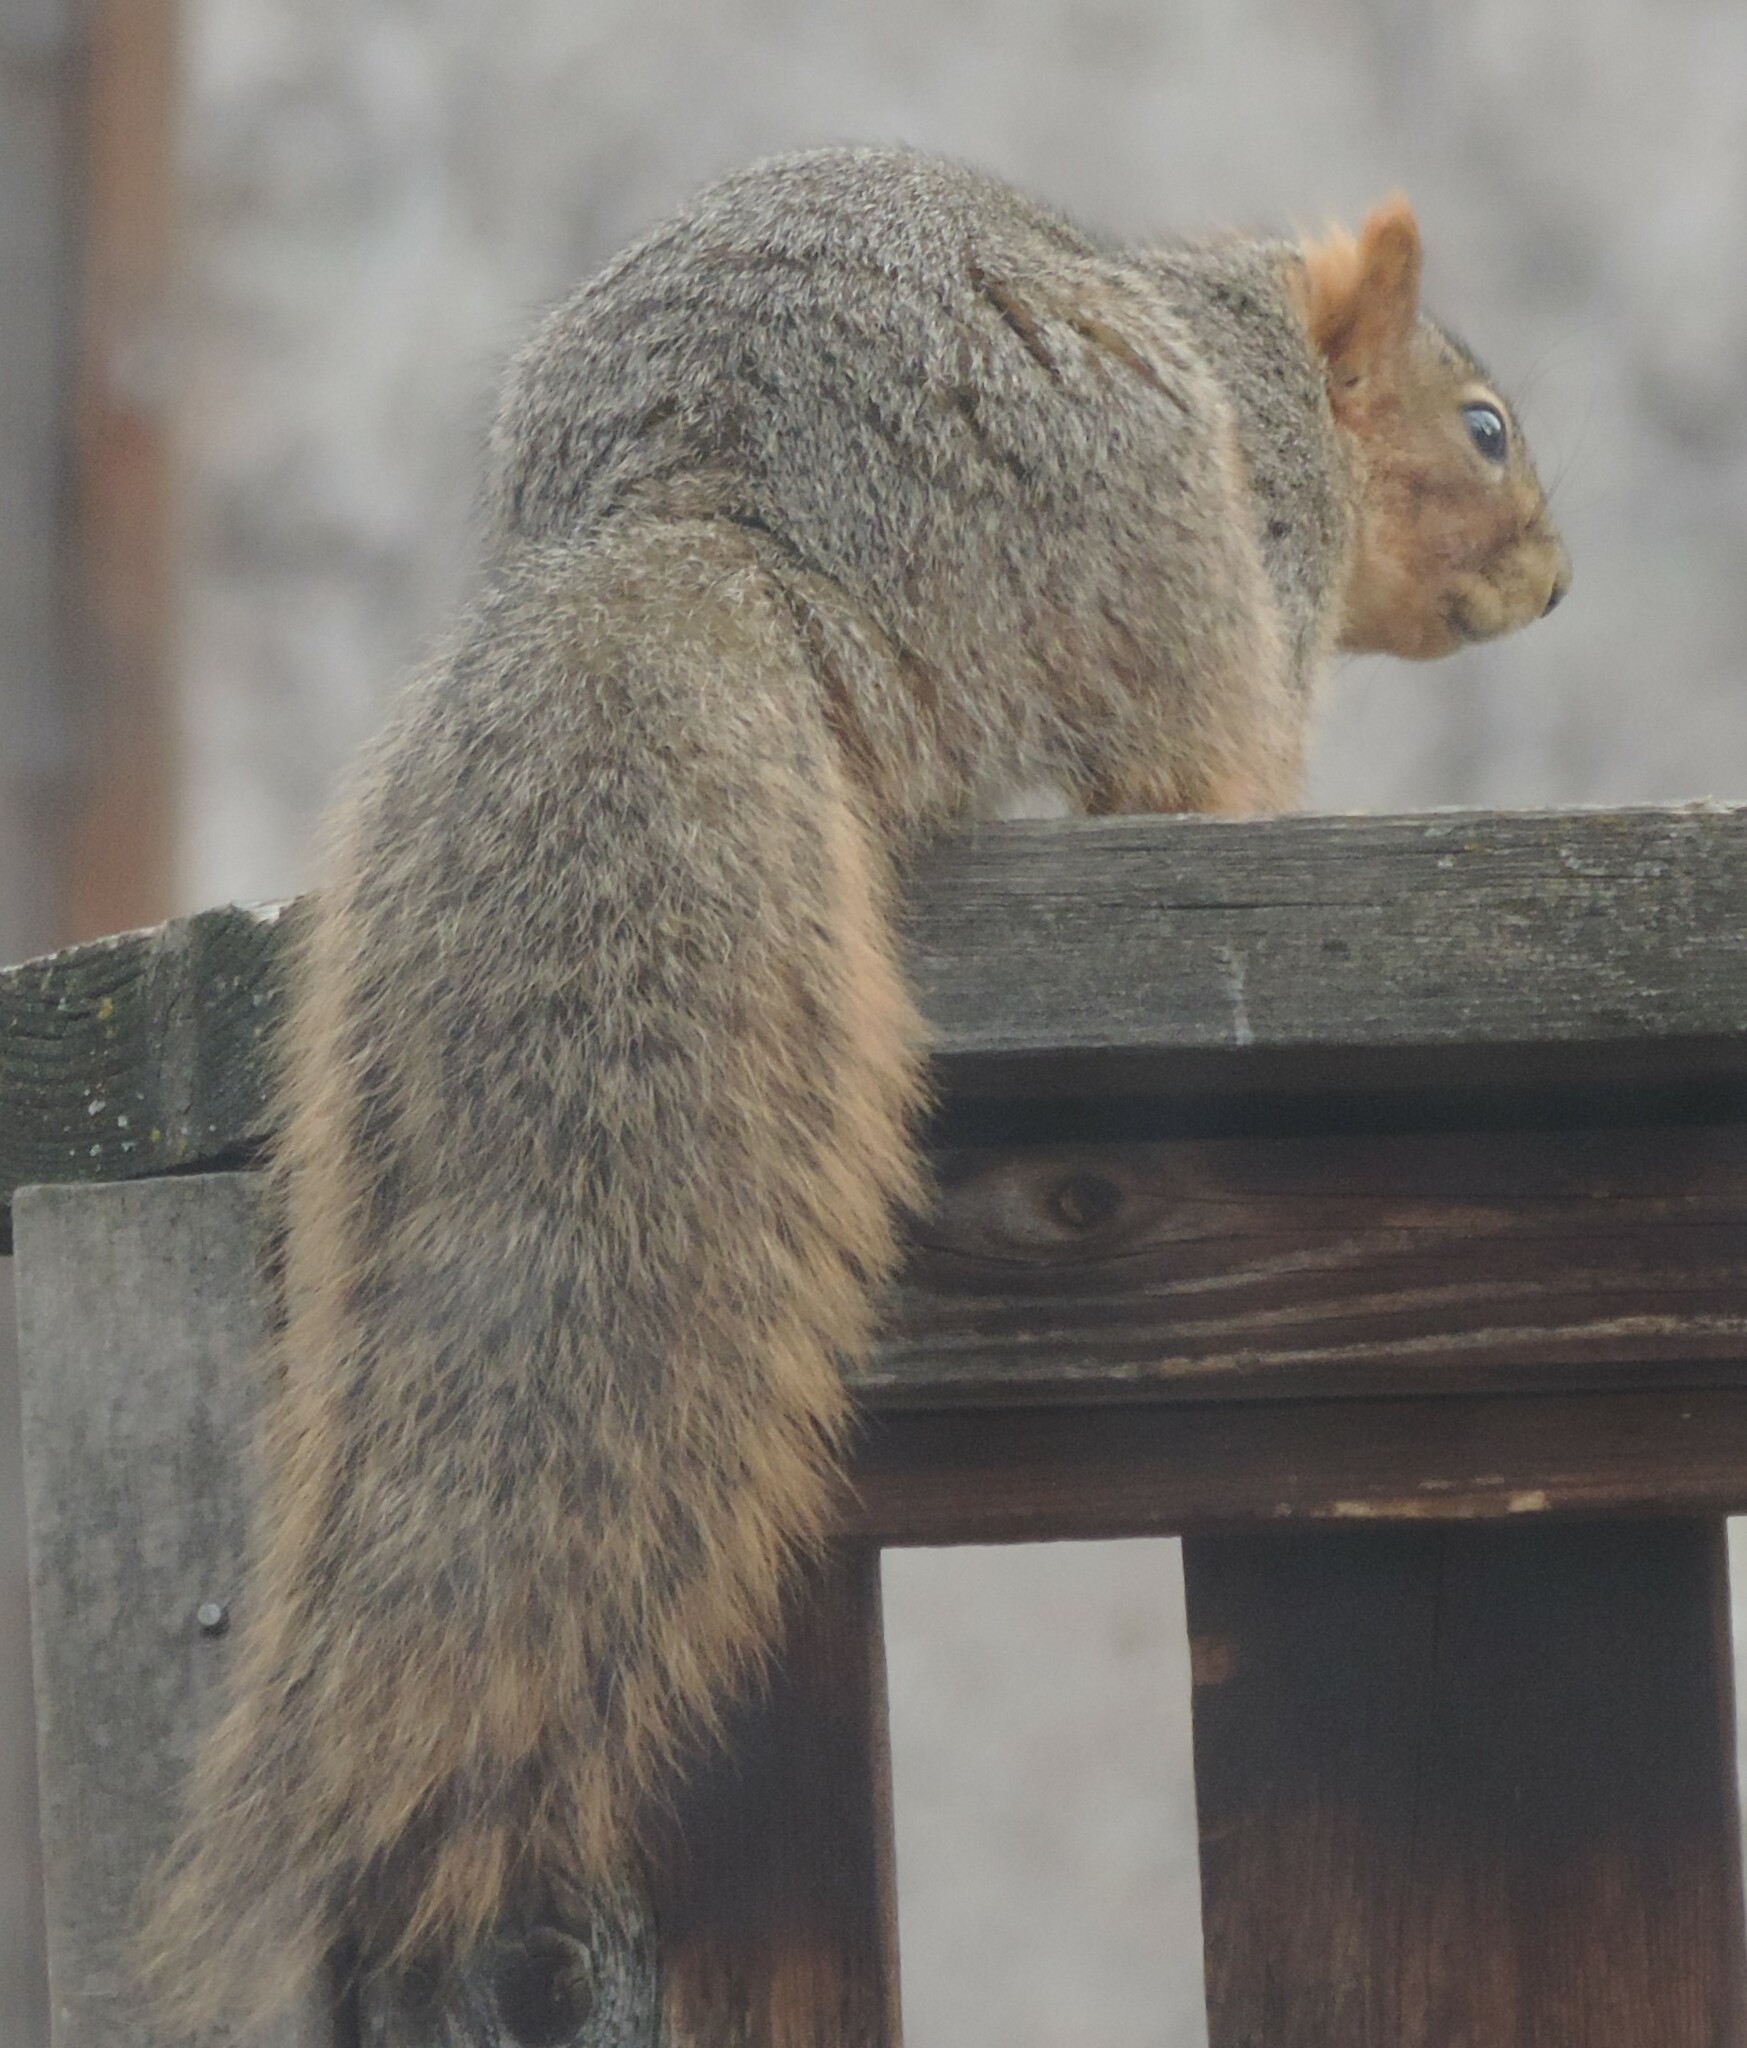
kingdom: Animalia
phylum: Chordata
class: Mammalia
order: Rodentia
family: Sciuridae
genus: Sciurus
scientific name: Sciurus niger
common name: Fox squirrel
